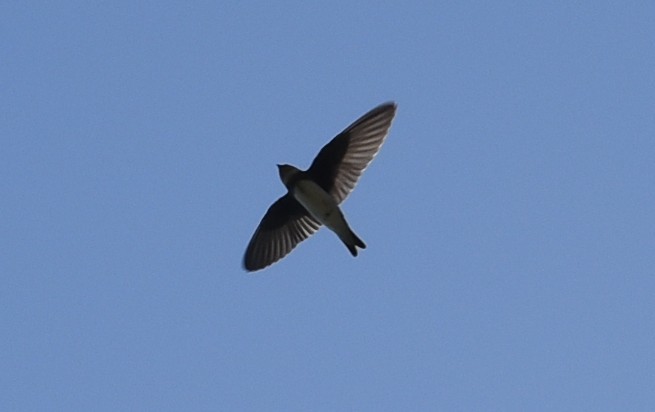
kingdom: Animalia
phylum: Chordata
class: Aves
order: Passeriformes
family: Hirundinidae
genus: Riparia
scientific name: Riparia riparia
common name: Sand martin
